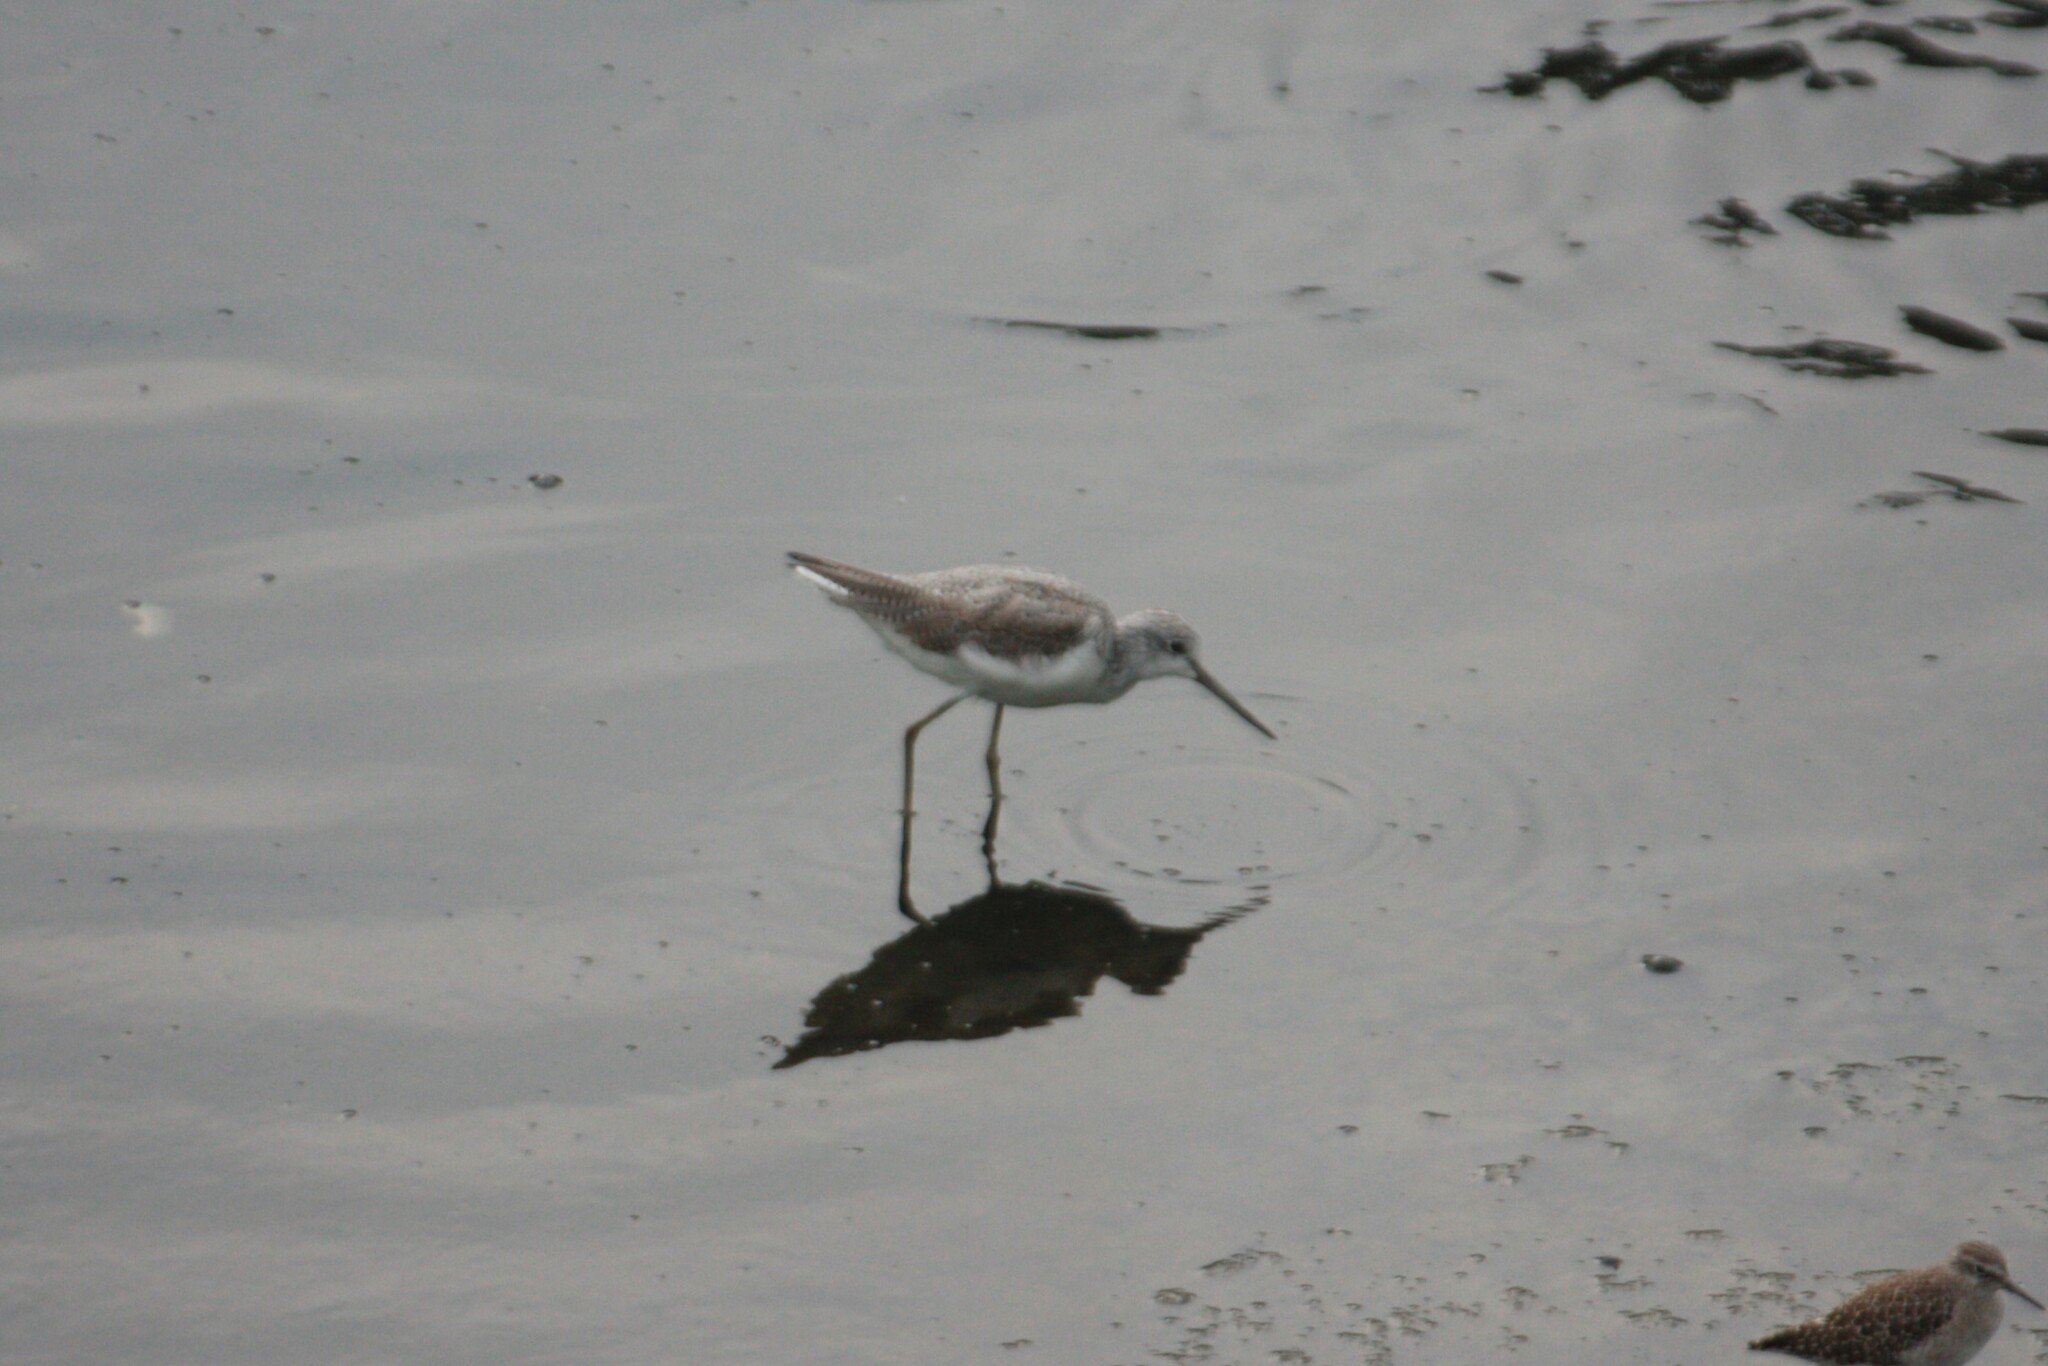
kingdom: Animalia
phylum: Chordata
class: Aves
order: Charadriiformes
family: Scolopacidae
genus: Tringa
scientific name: Tringa nebularia
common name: Common greenshank
